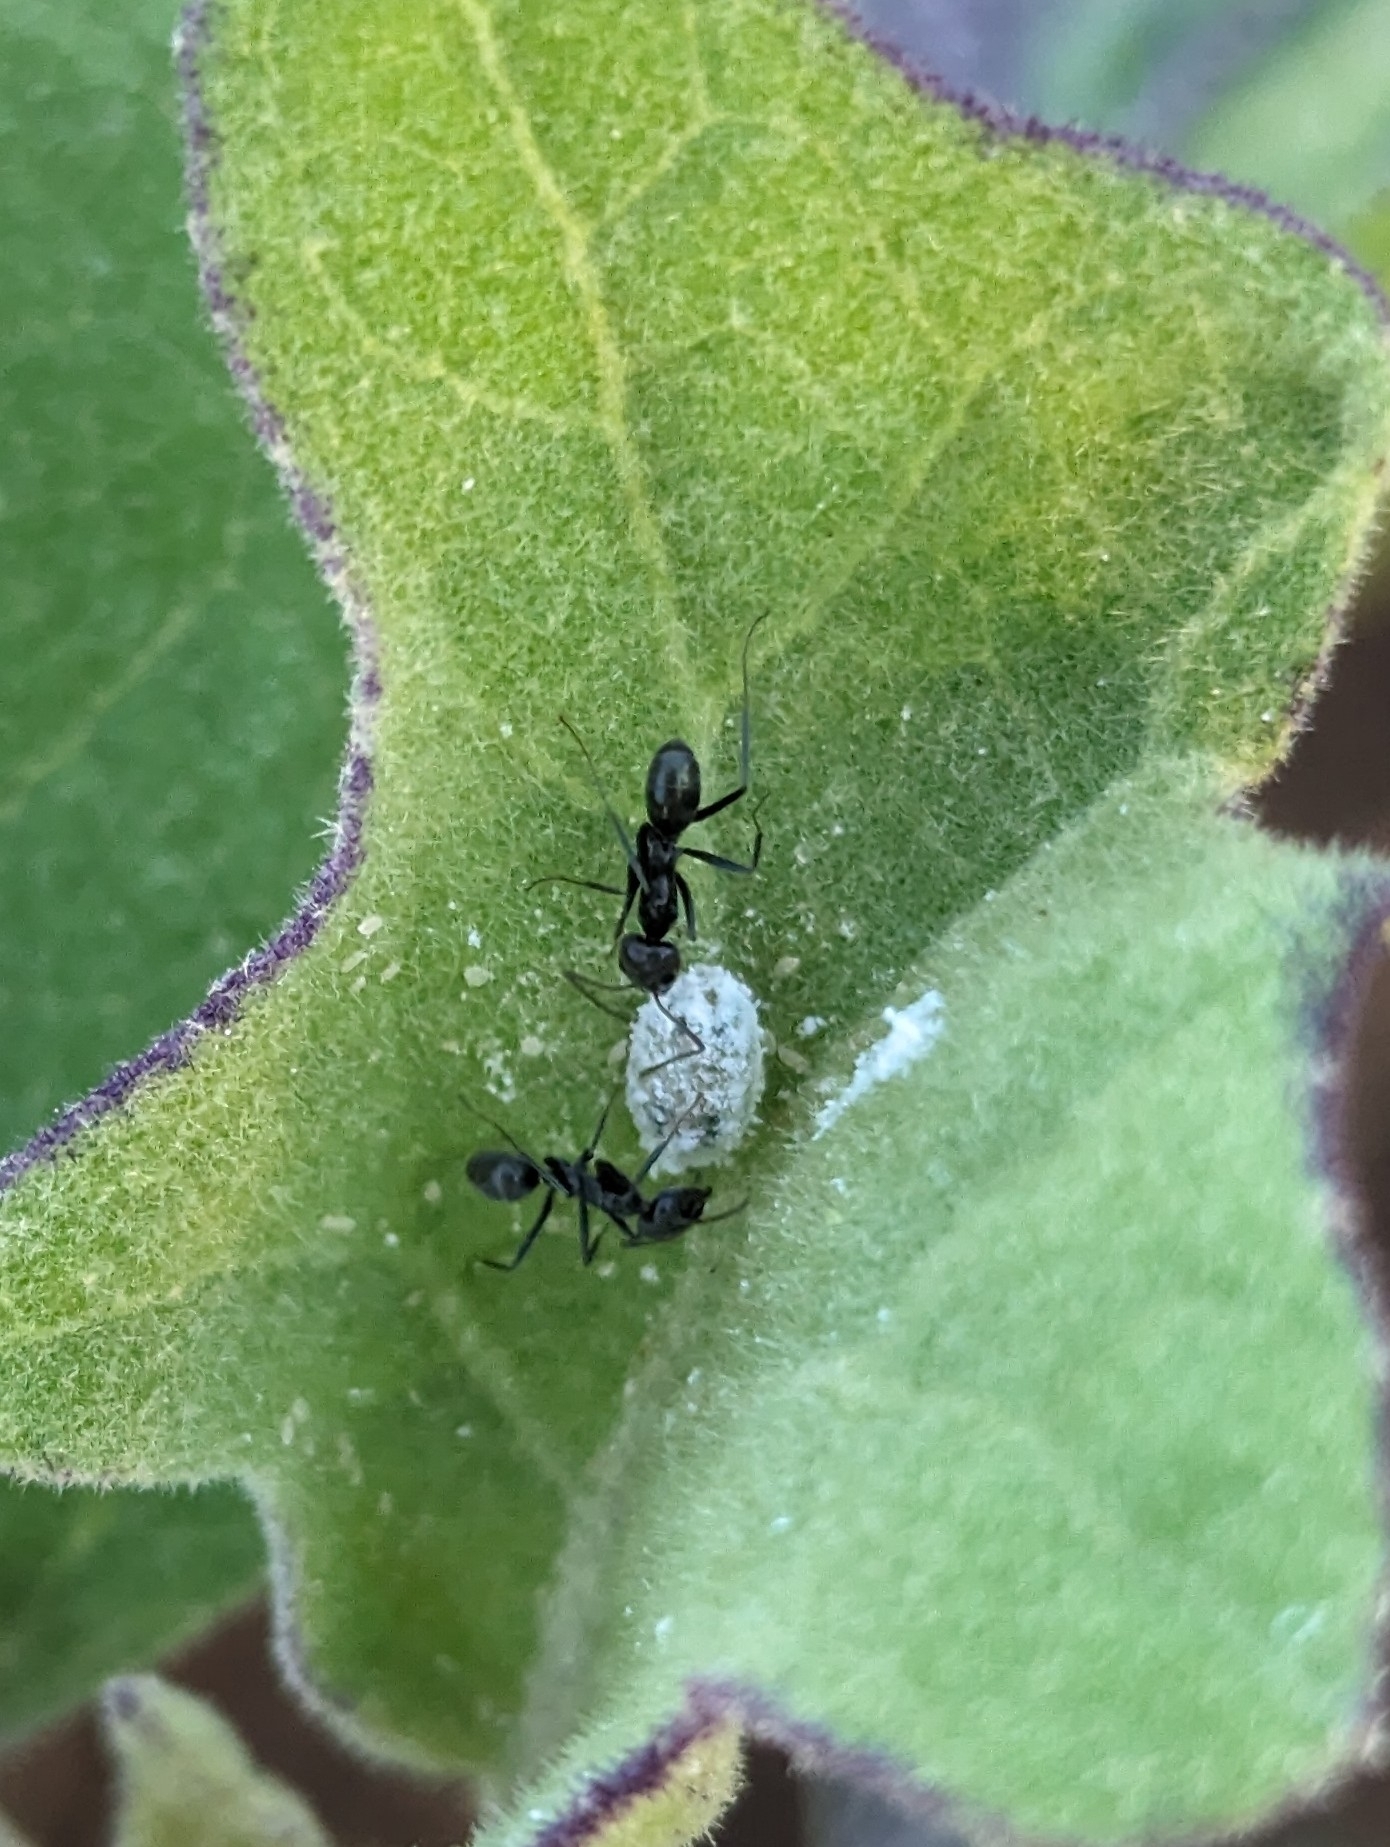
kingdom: Animalia
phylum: Arthropoda
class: Insecta
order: Hymenoptera
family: Formicidae
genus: Iridomyrmex
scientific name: Iridomyrmex anceps
